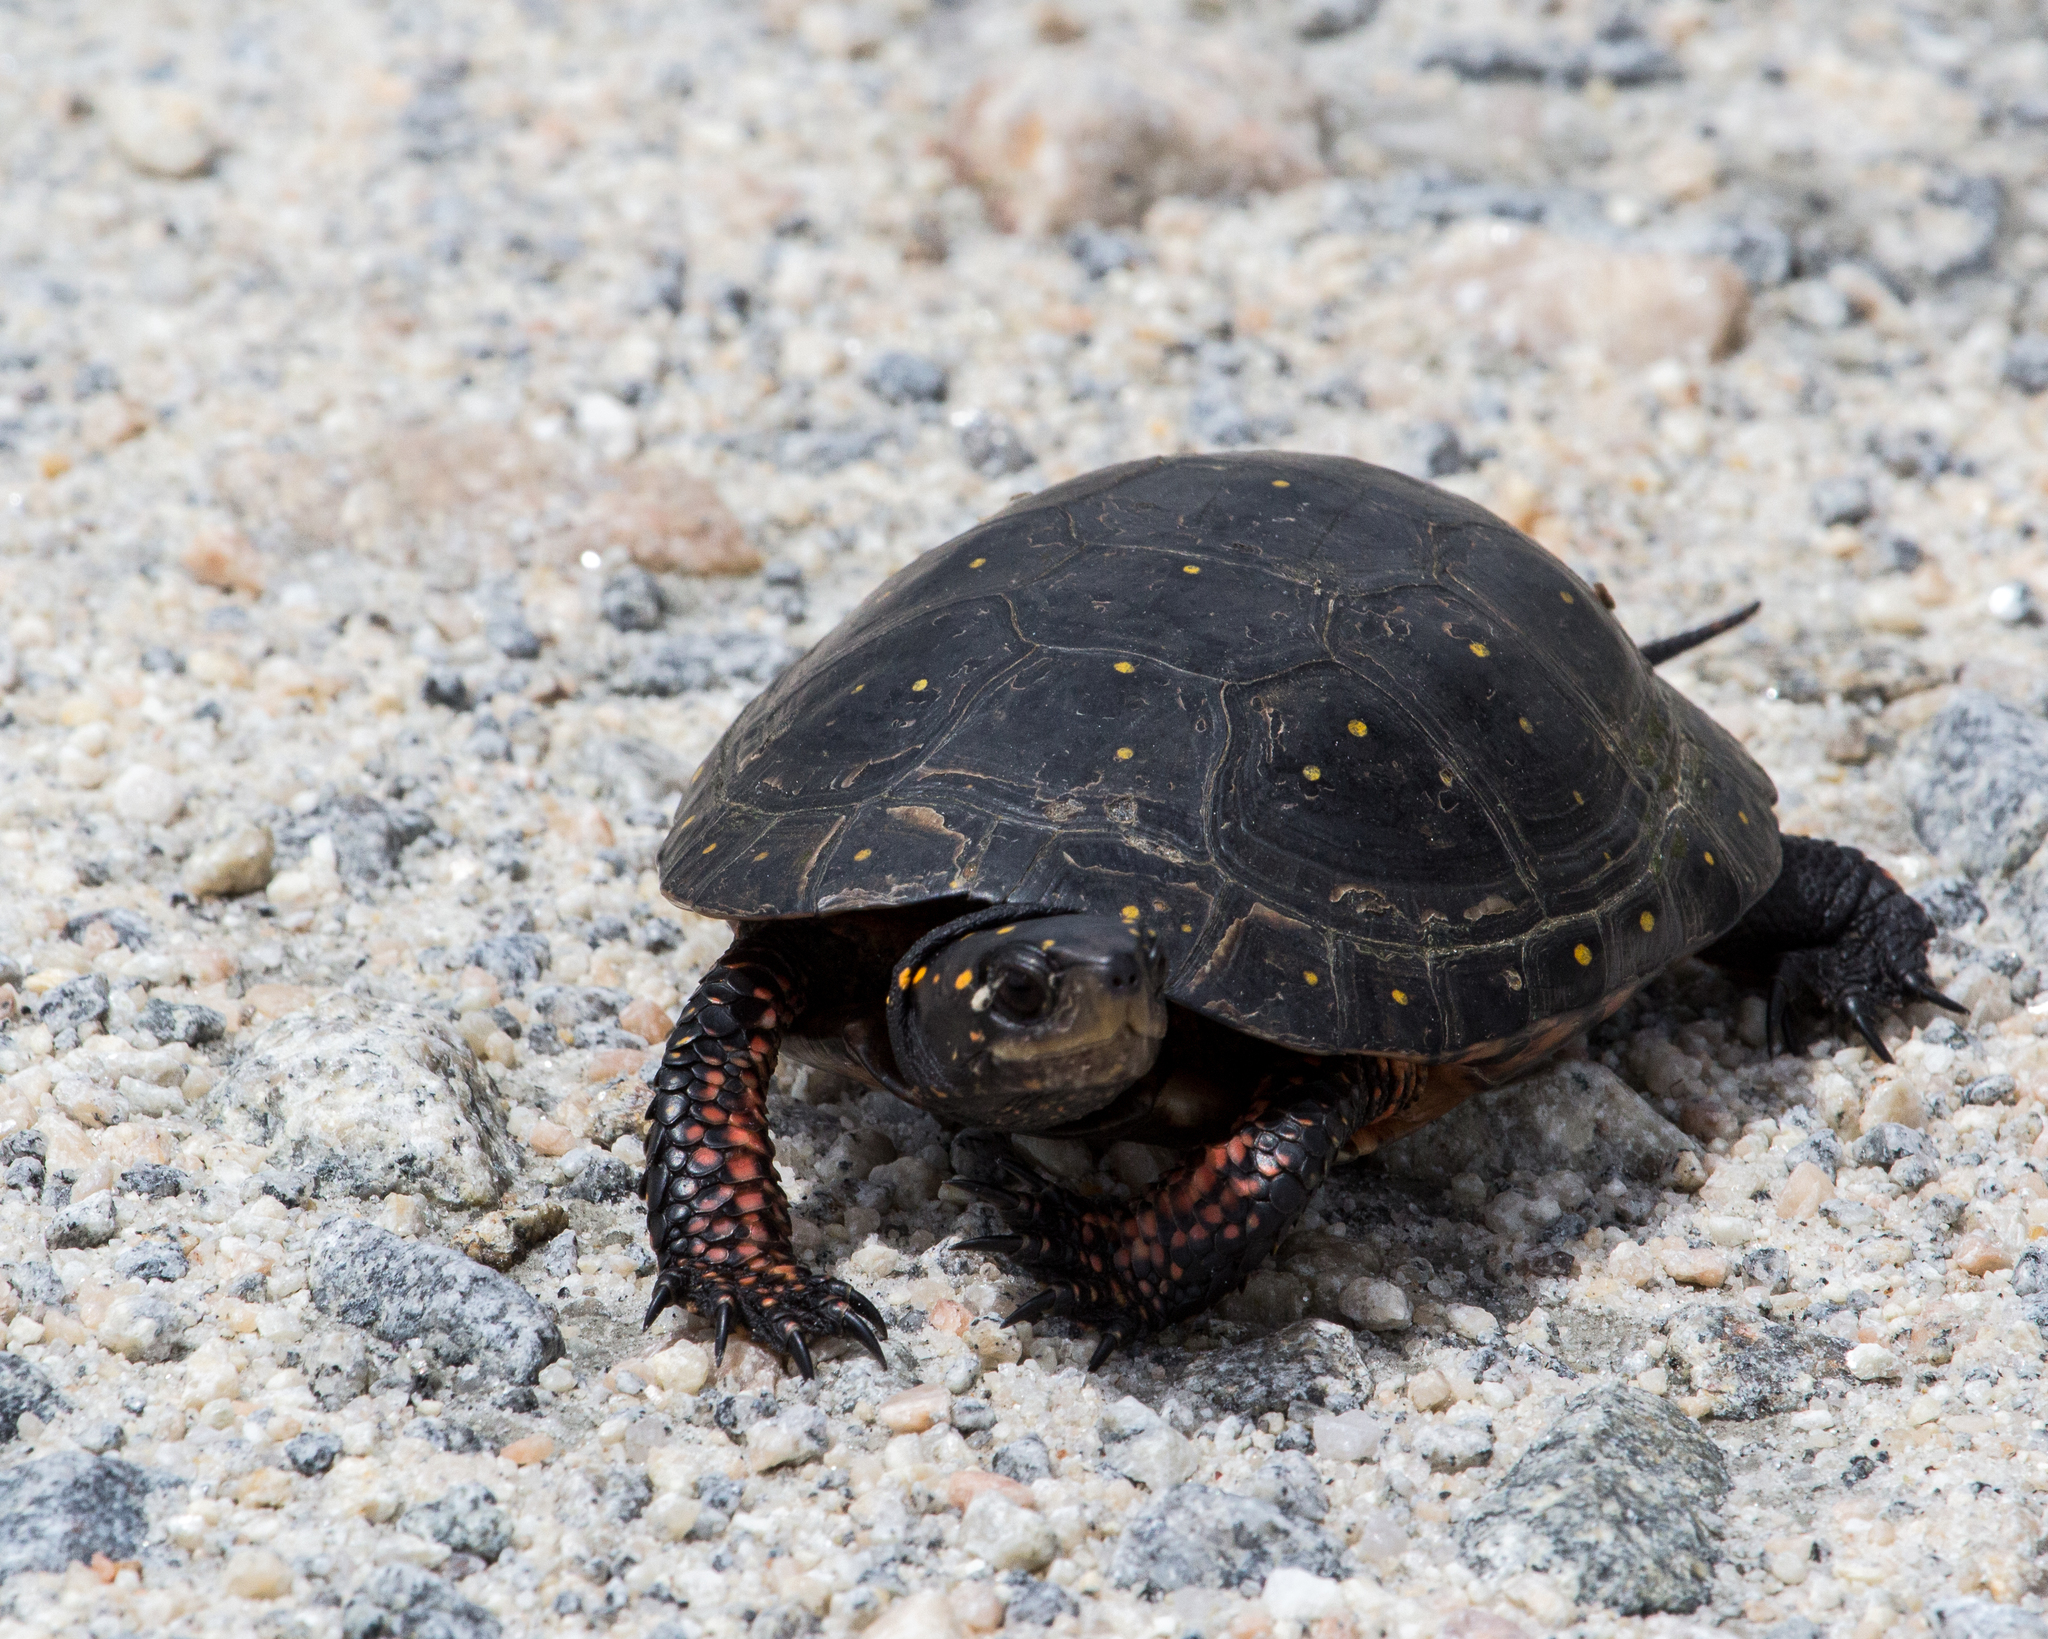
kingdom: Animalia
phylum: Chordata
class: Testudines
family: Emydidae
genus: Clemmys
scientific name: Clemmys guttata
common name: Spotted turtle
